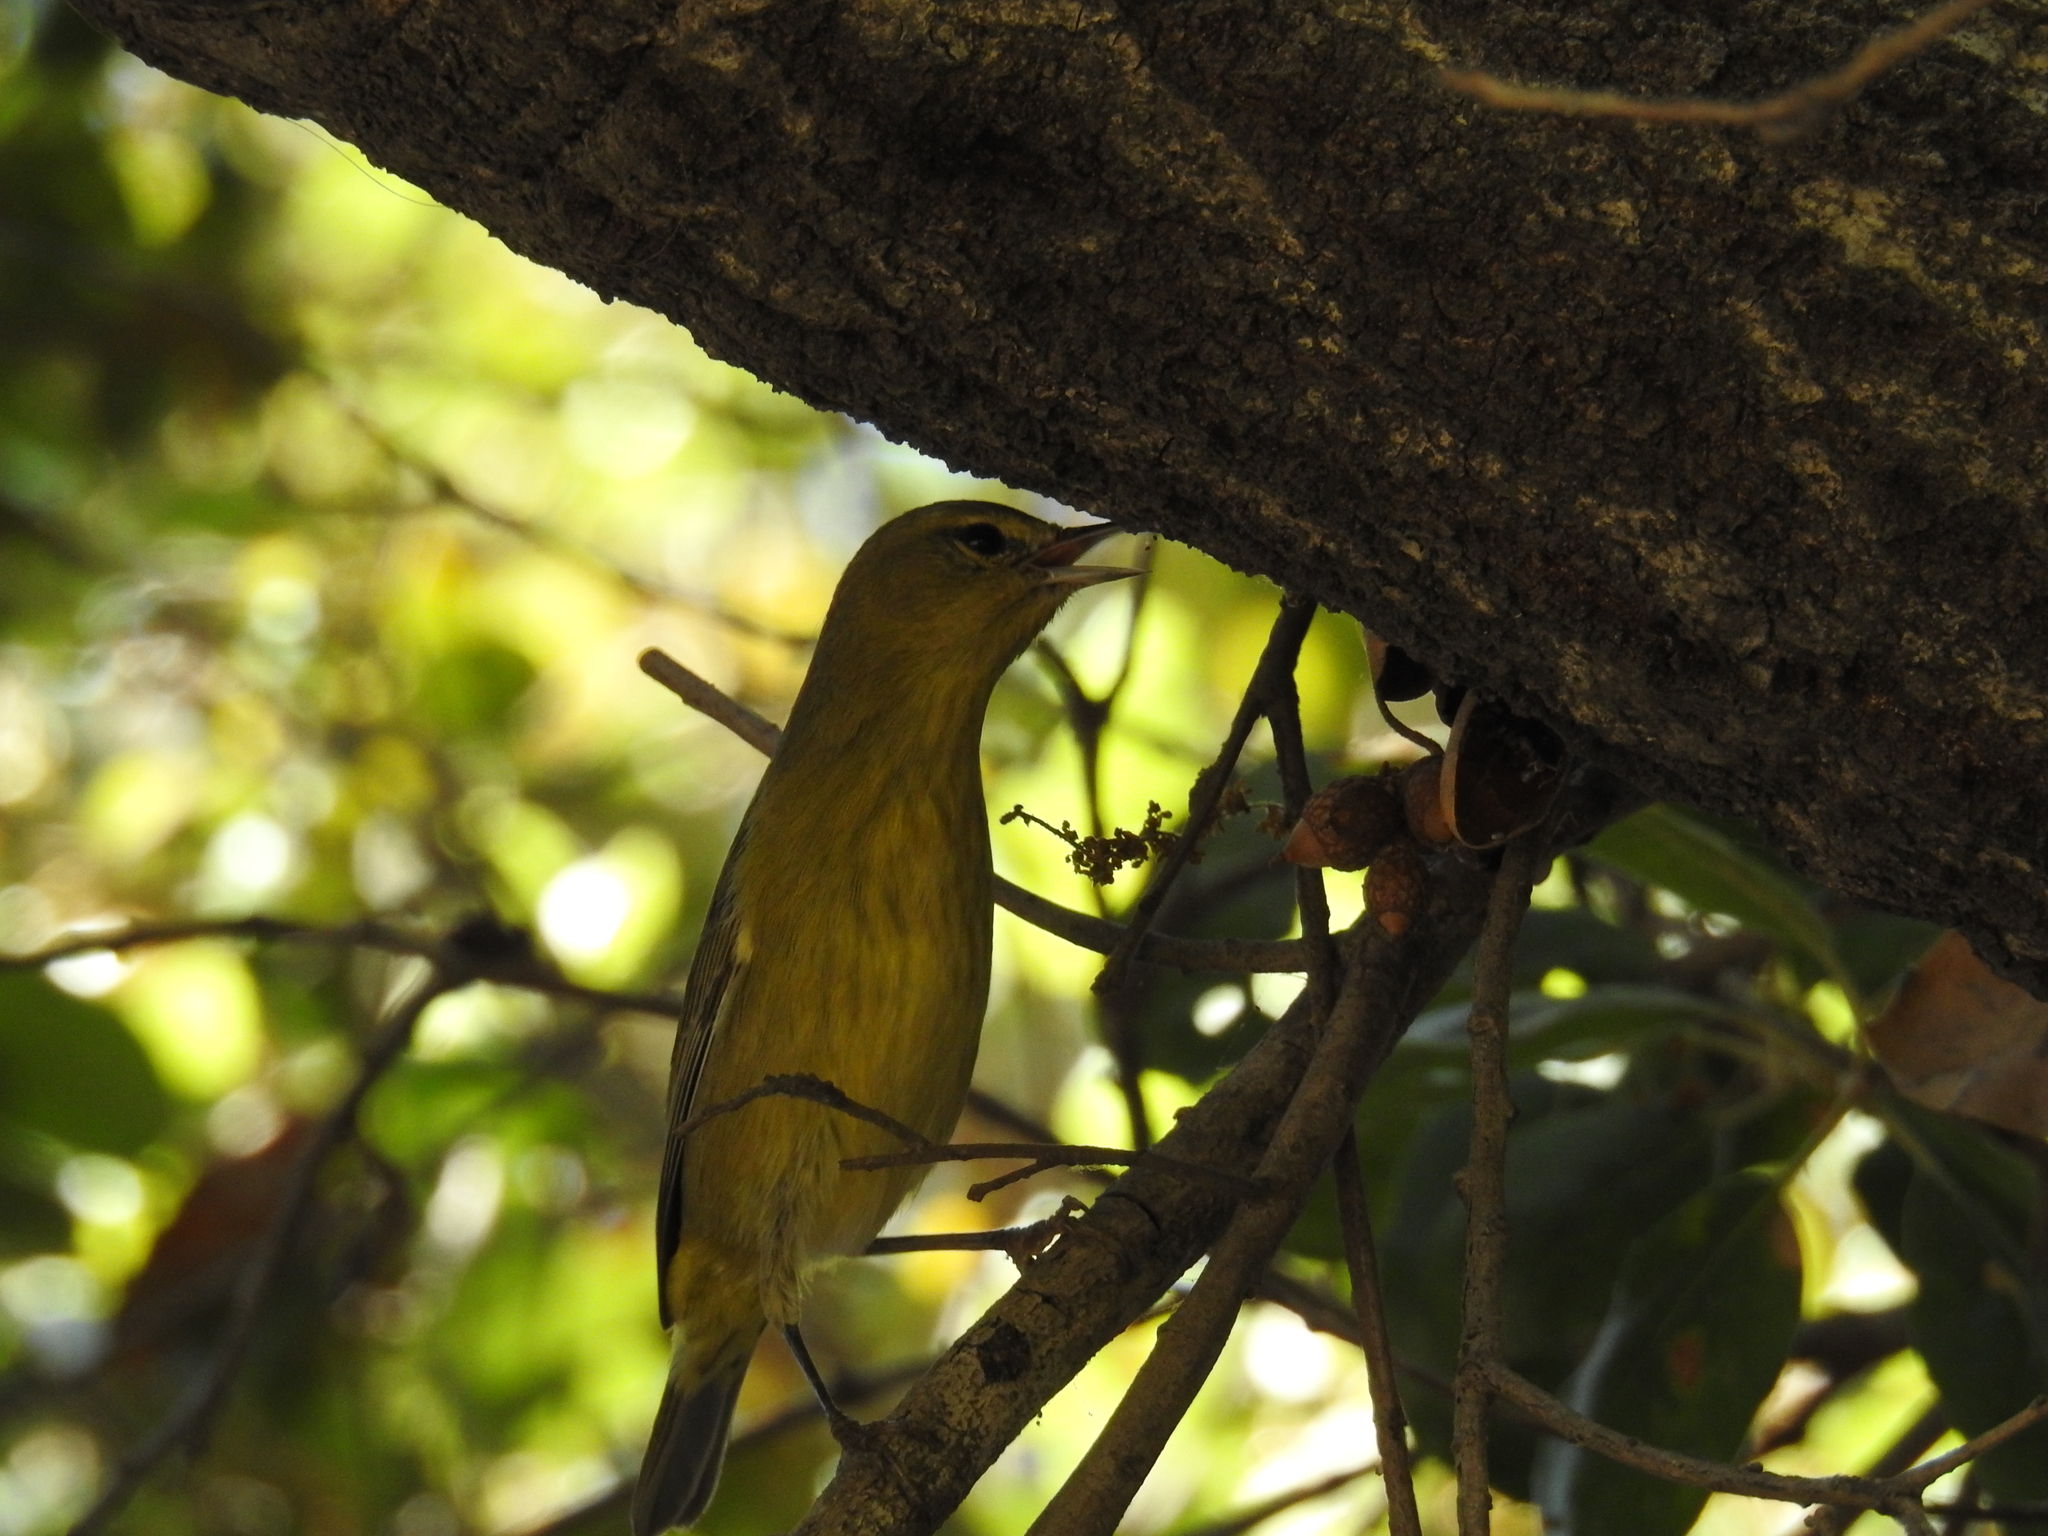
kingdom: Animalia
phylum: Chordata
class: Aves
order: Passeriformes
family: Parulidae
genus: Leiothlypis
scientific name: Leiothlypis celata
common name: Orange-crowned warbler
